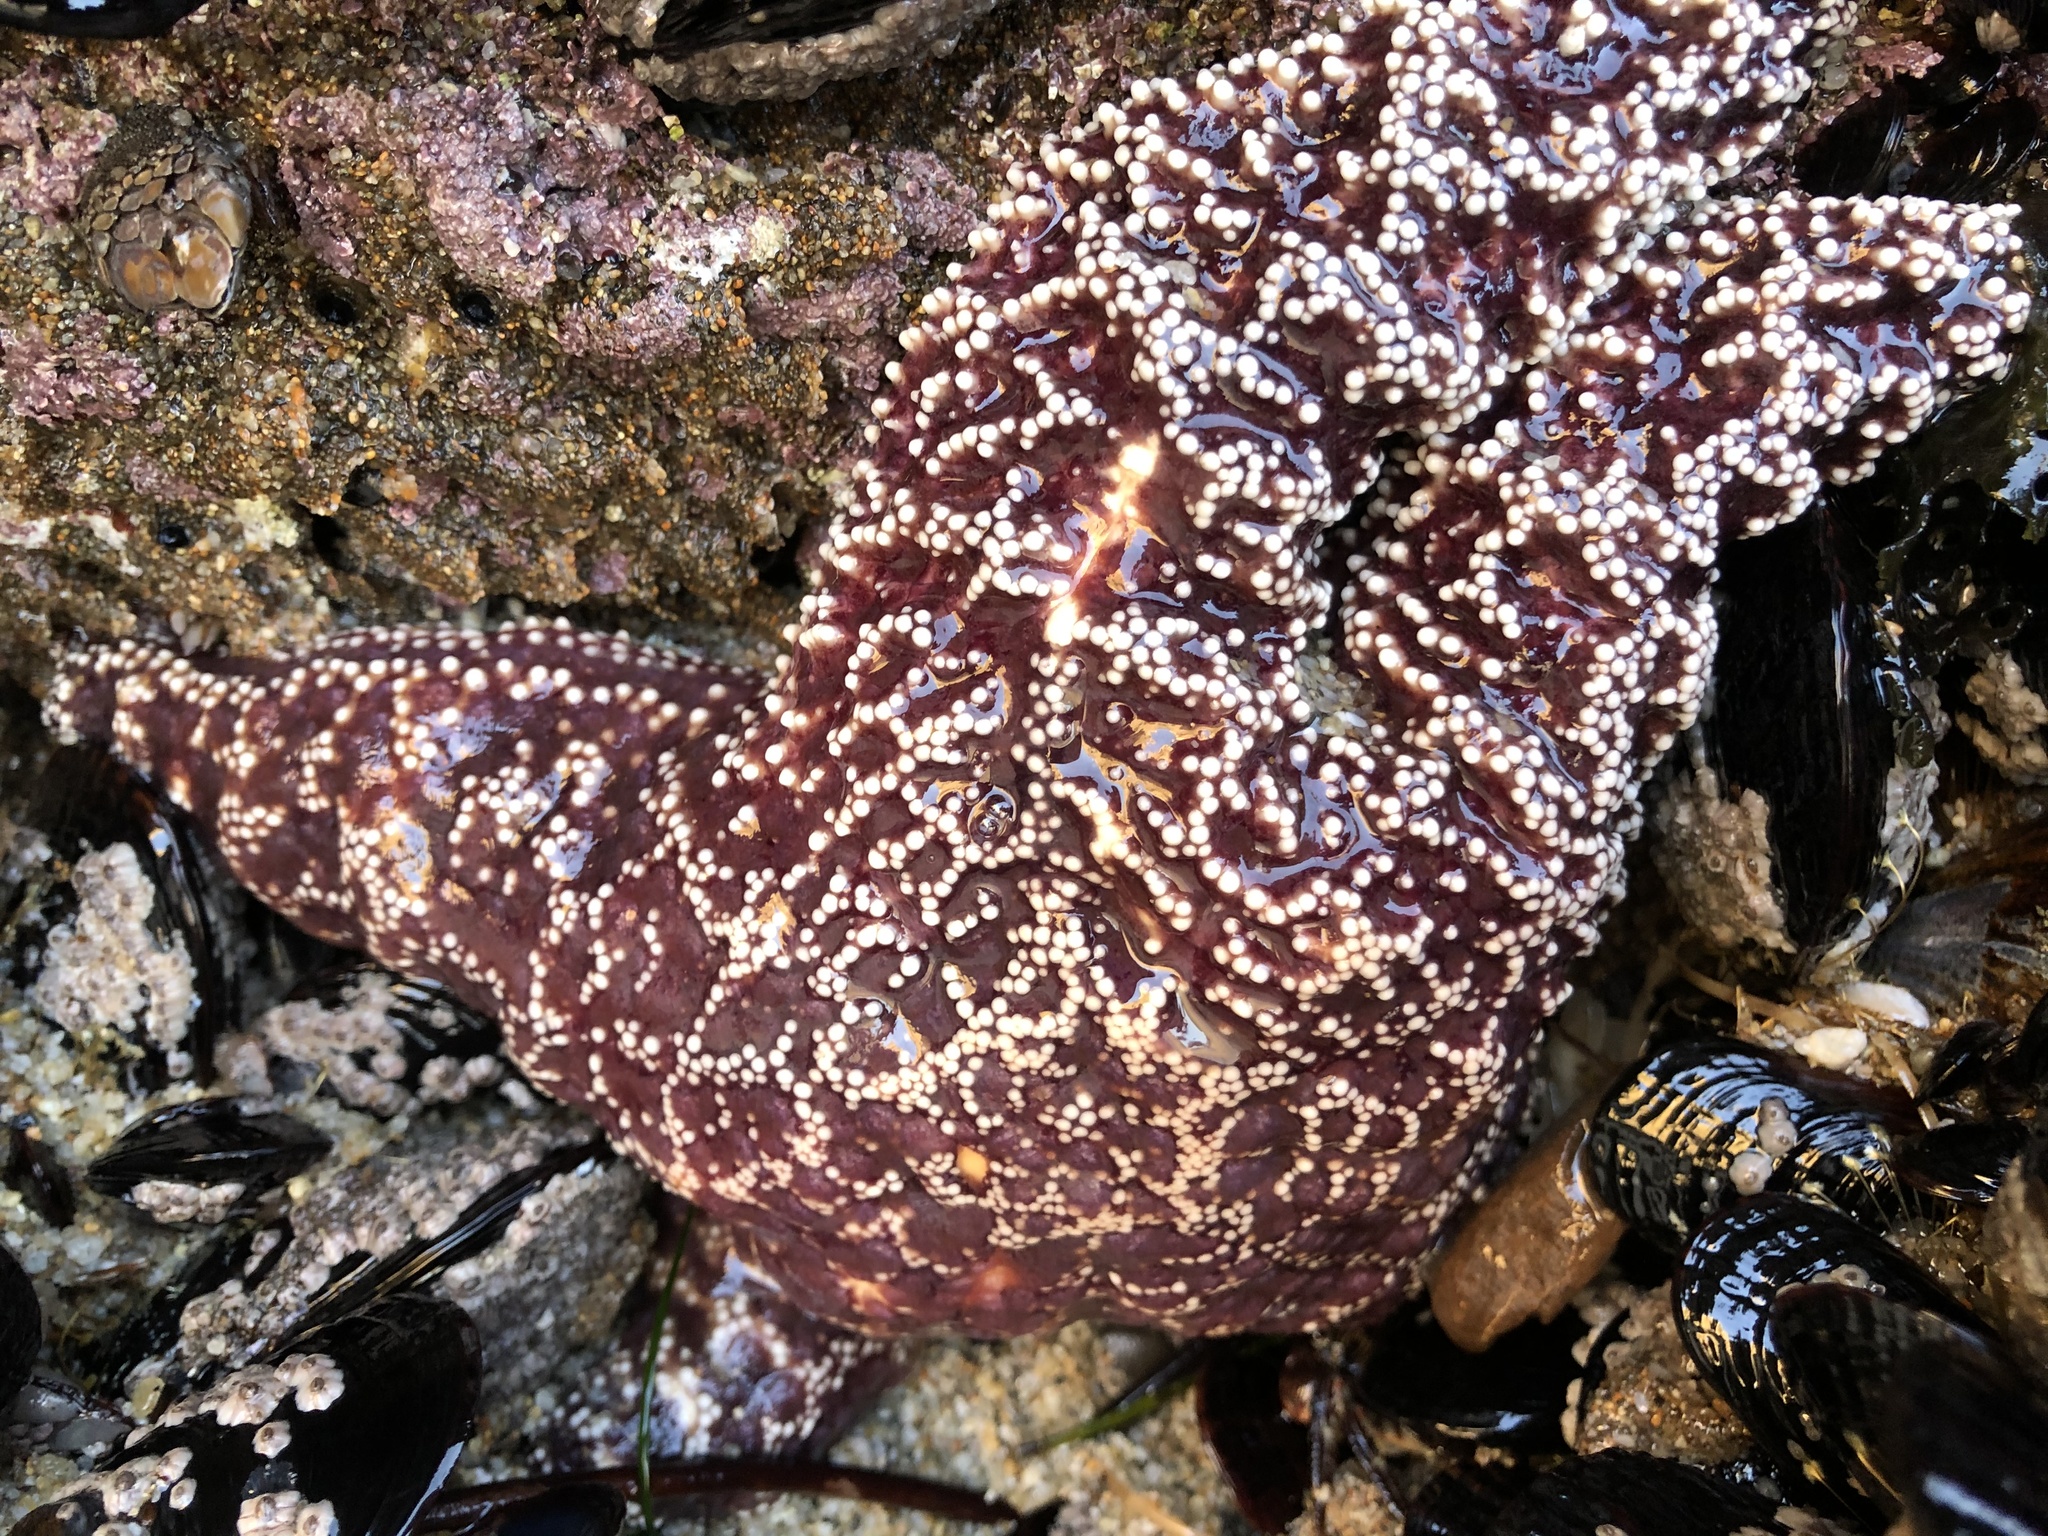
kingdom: Animalia
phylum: Echinodermata
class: Asteroidea
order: Forcipulatida
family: Asteriidae
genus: Pisaster
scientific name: Pisaster ochraceus
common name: Ochre stars
